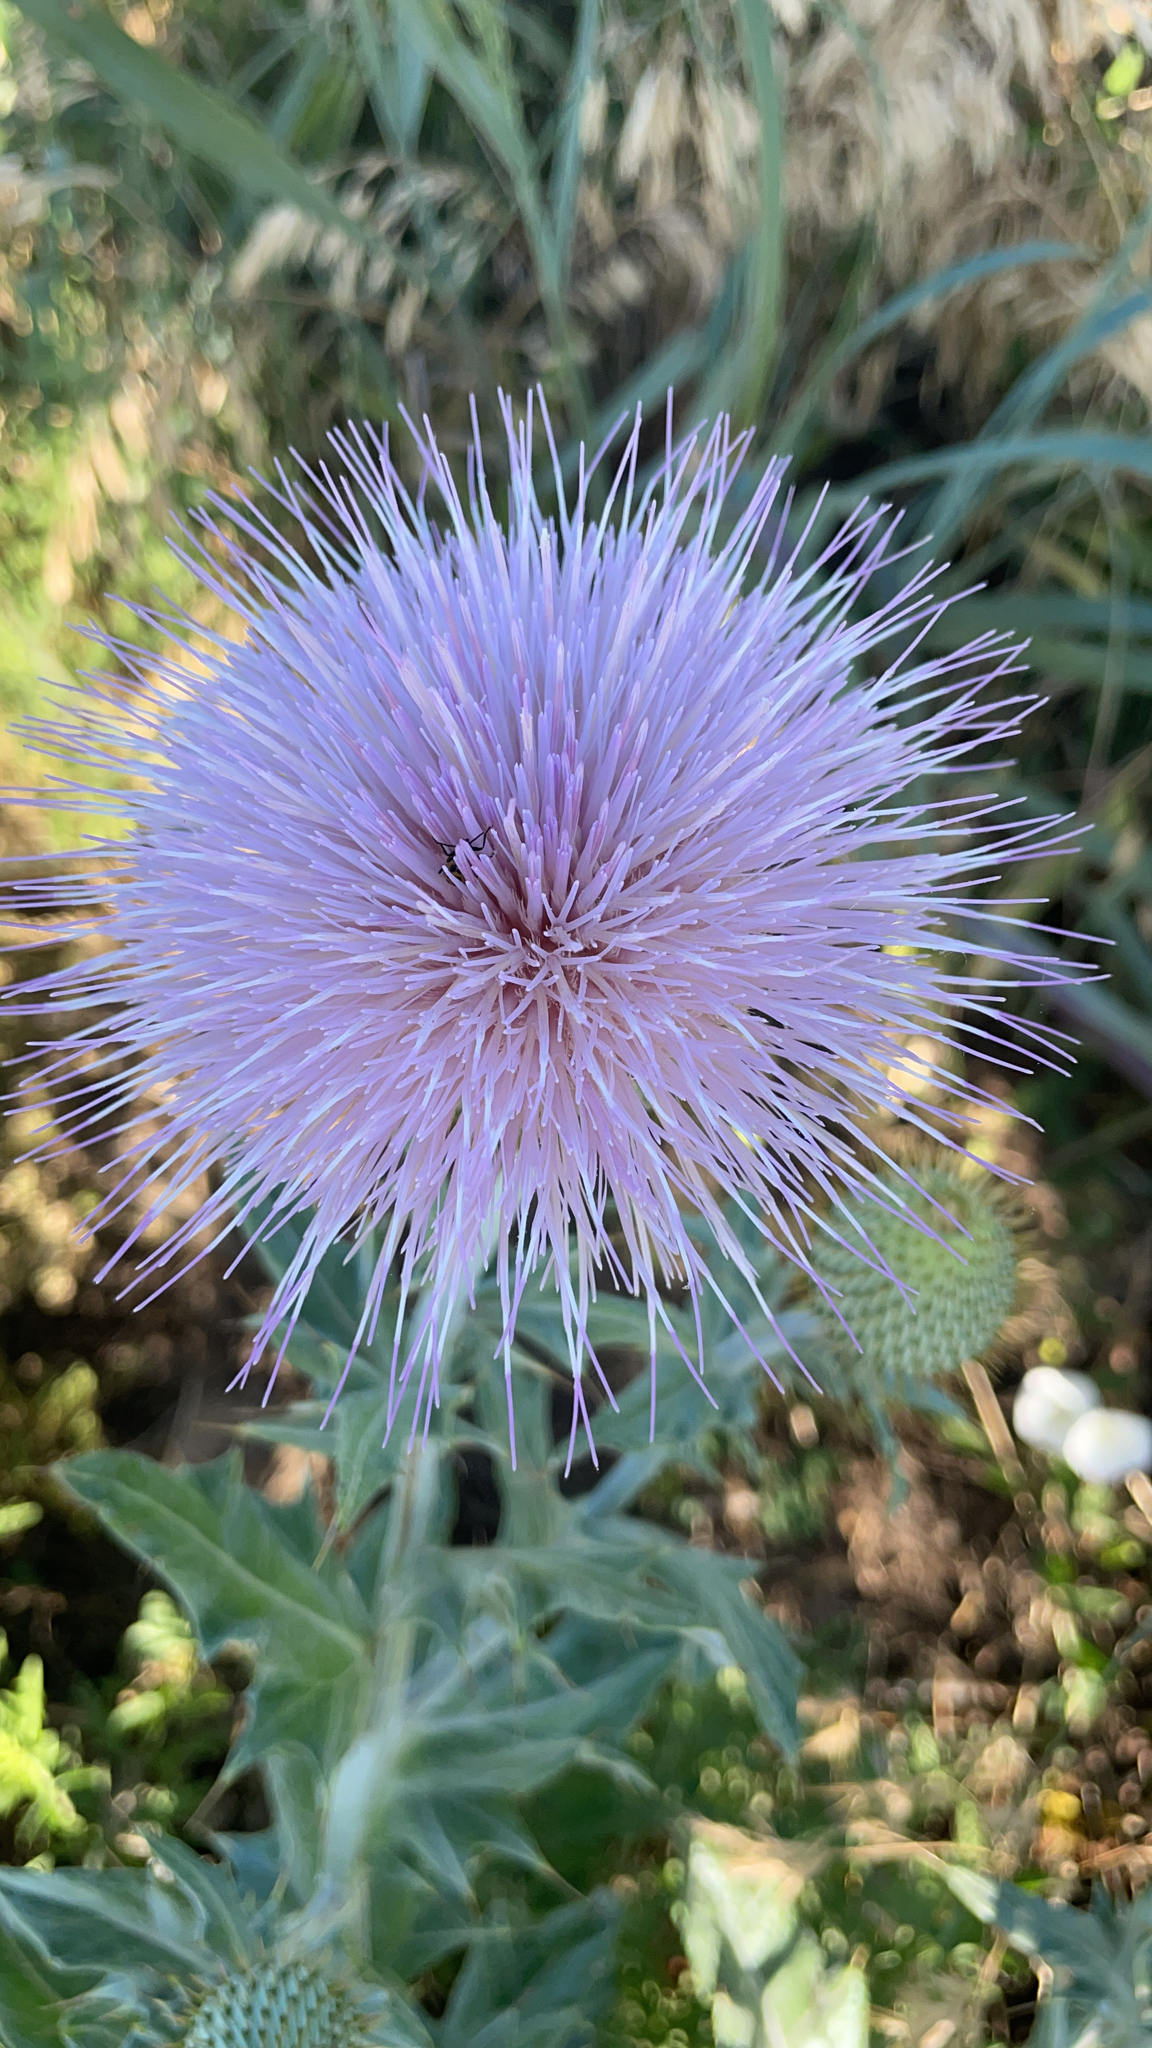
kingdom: Plantae
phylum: Tracheophyta
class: Magnoliopsida
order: Asterales
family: Asteraceae
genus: Cirsium
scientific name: Cirsium undulatum
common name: Pasture thistle
